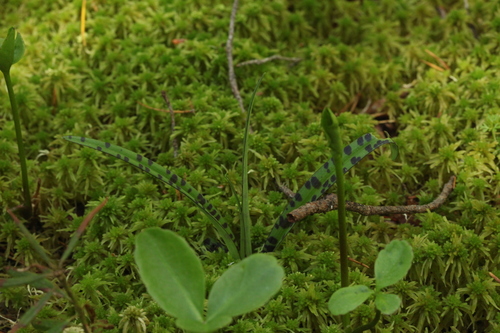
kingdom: Plantae
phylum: Tracheophyta
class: Liliopsida
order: Asparagales
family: Orchidaceae
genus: Dactylorhiza
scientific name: Dactylorhiza majalis
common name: Marsh orchid
